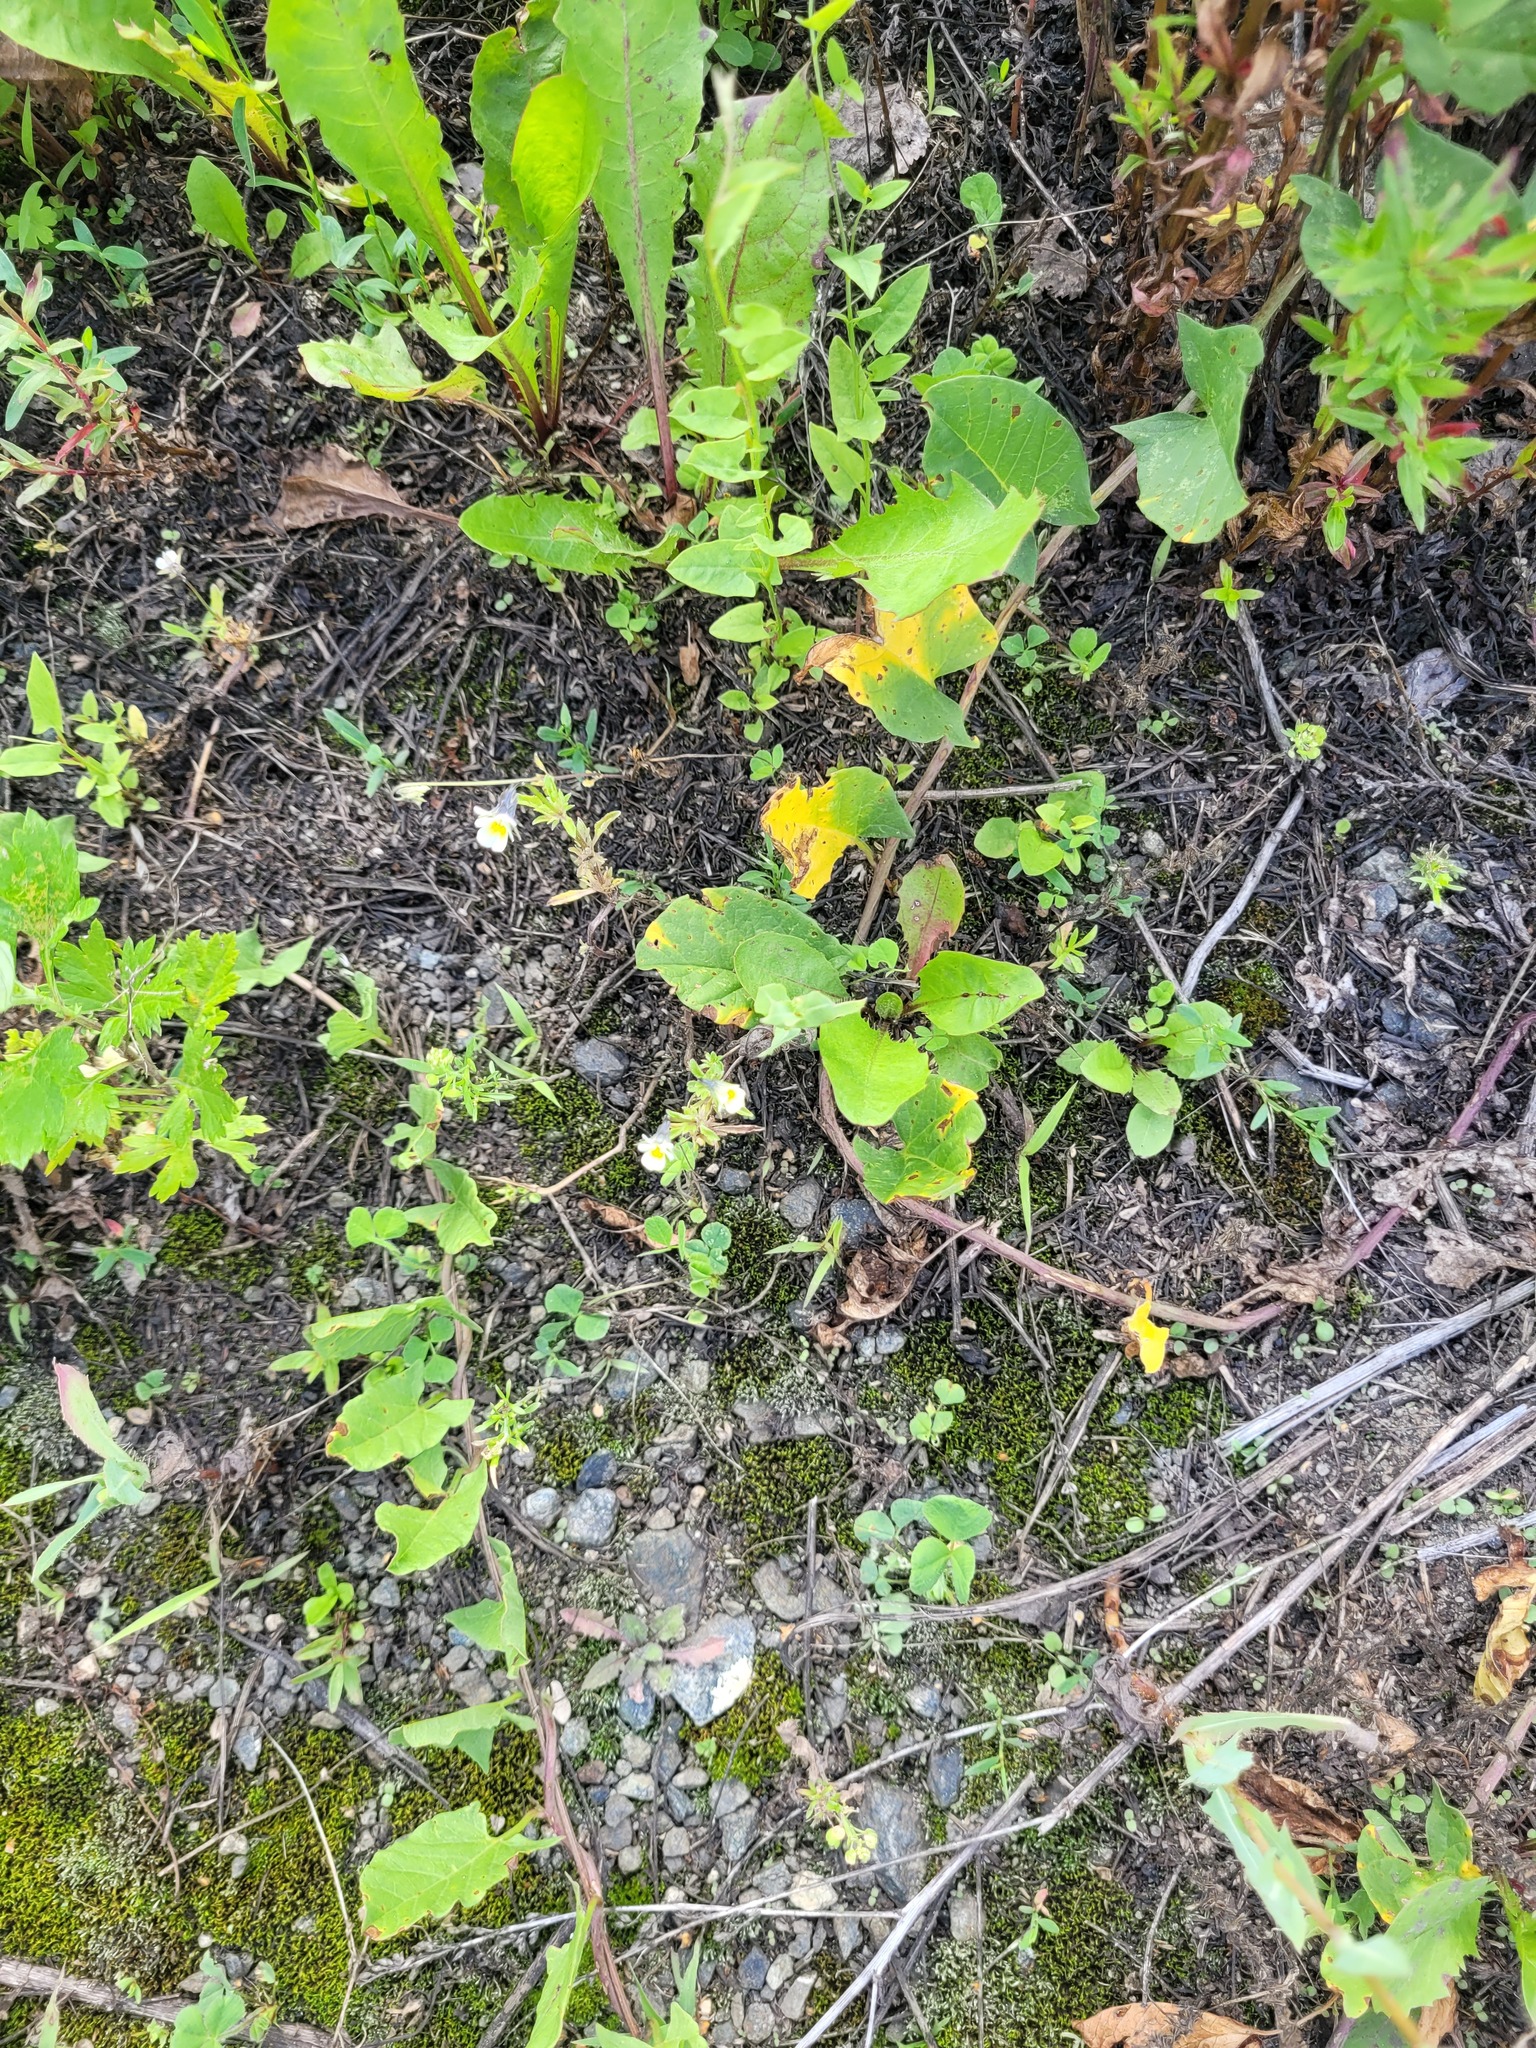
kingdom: Plantae
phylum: Tracheophyta
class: Magnoliopsida
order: Malpighiales
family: Violaceae
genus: Viola
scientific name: Viola arvensis
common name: Field pansy
